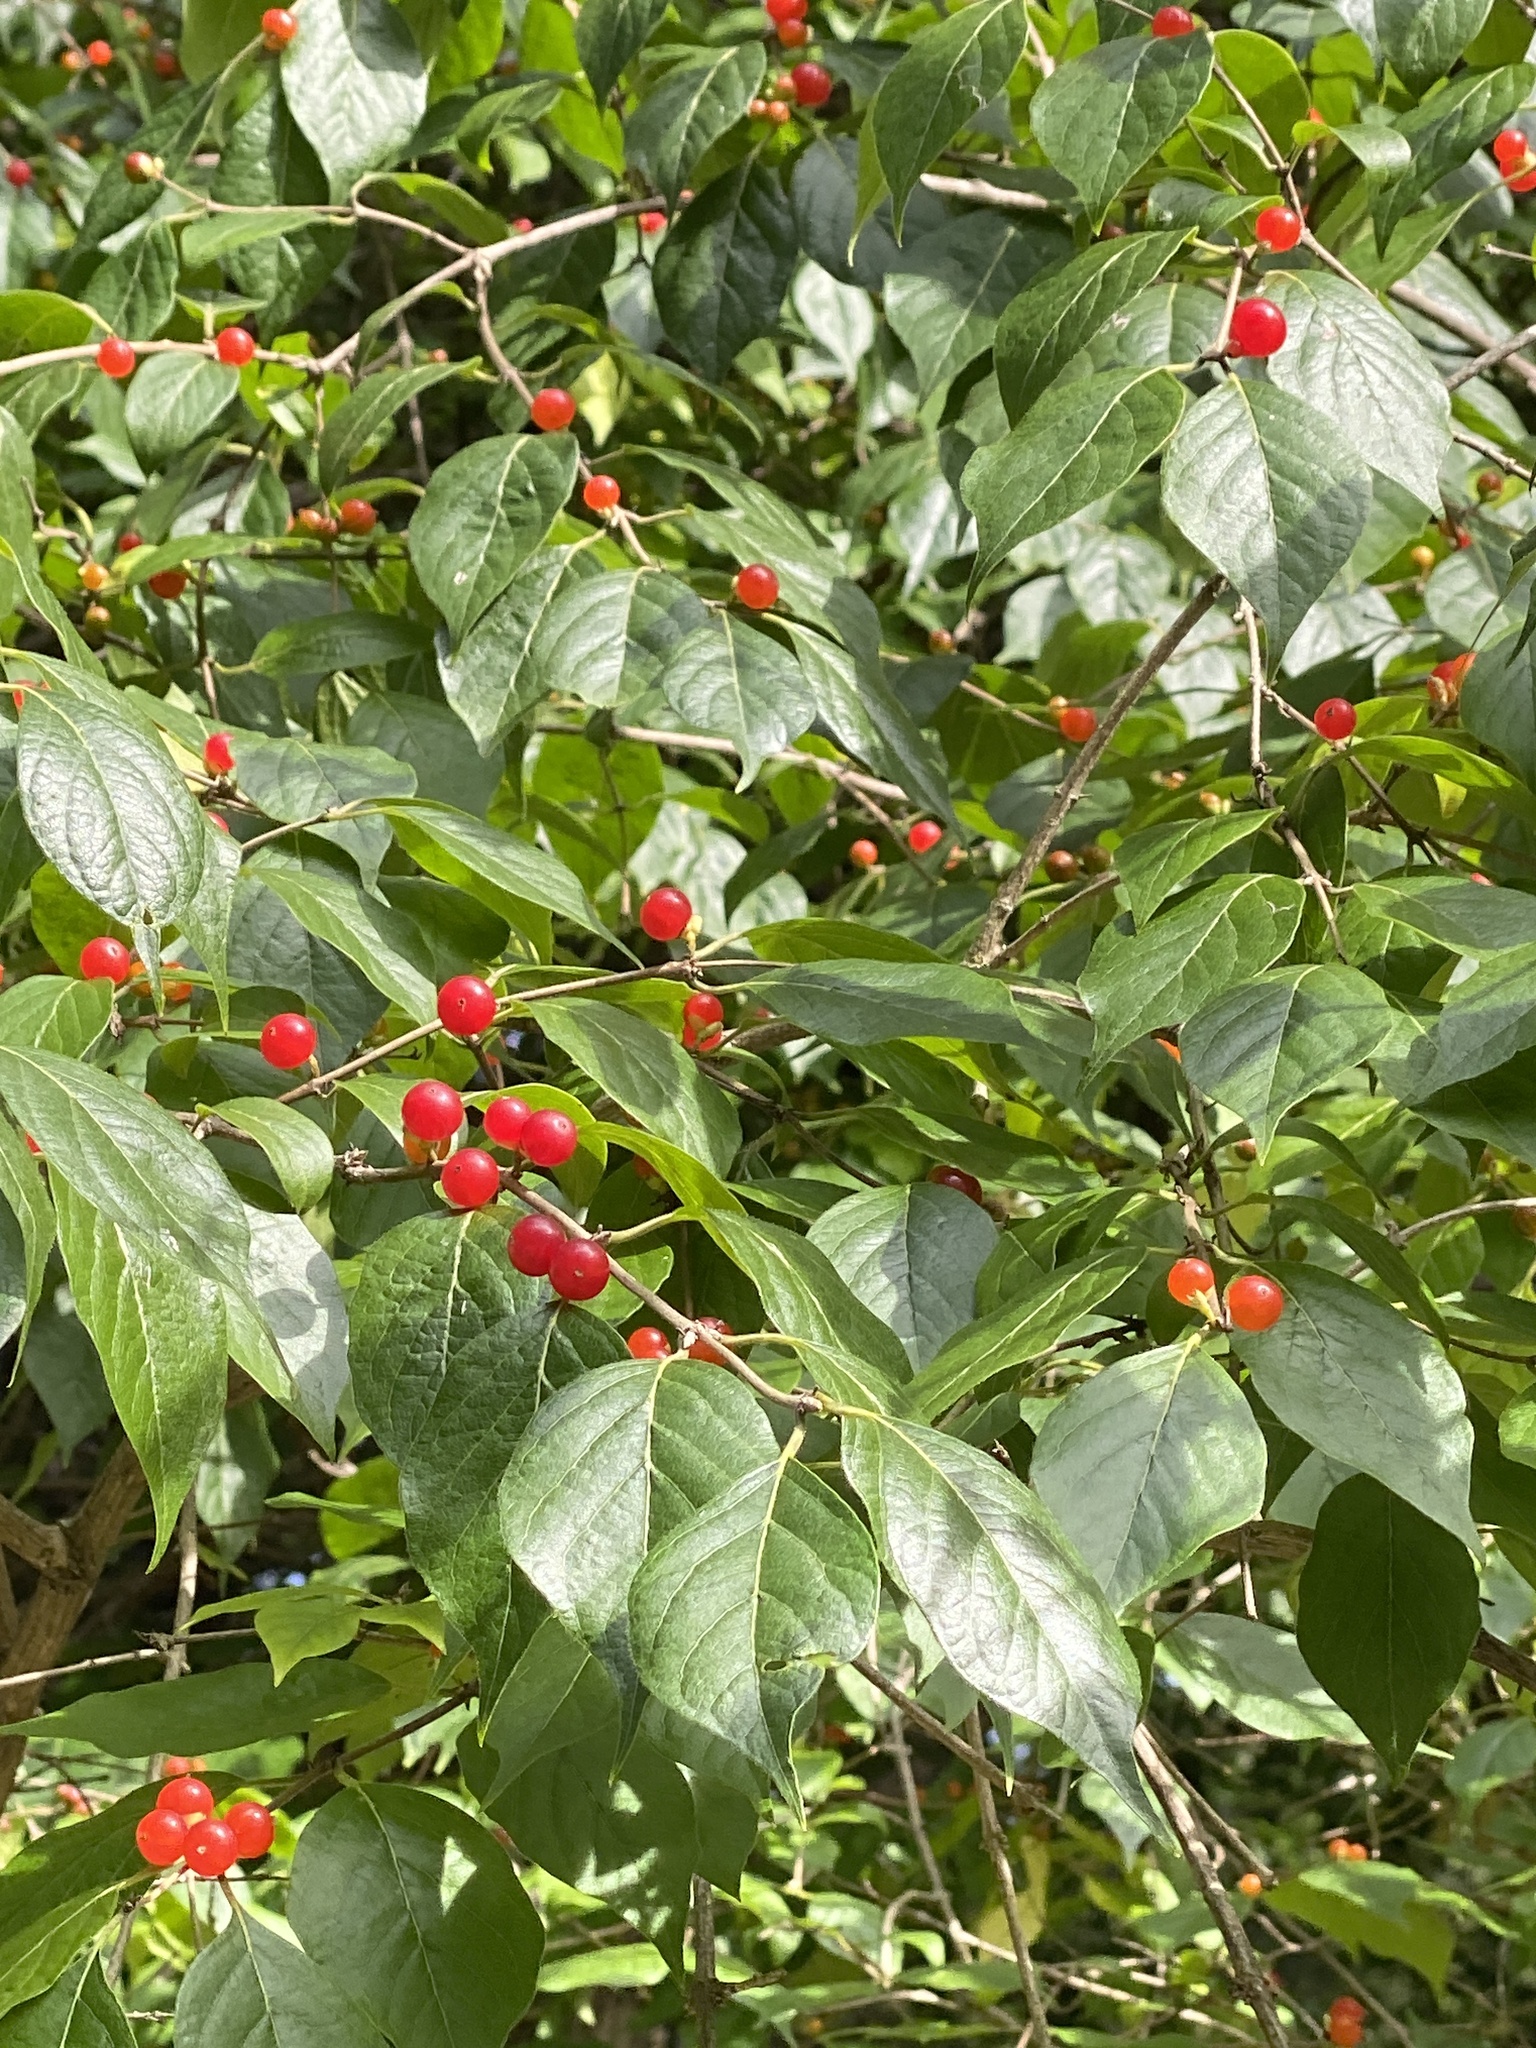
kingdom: Plantae
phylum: Tracheophyta
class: Magnoliopsida
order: Dipsacales
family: Caprifoliaceae
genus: Lonicera
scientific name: Lonicera maackii
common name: Amur honeysuckle
